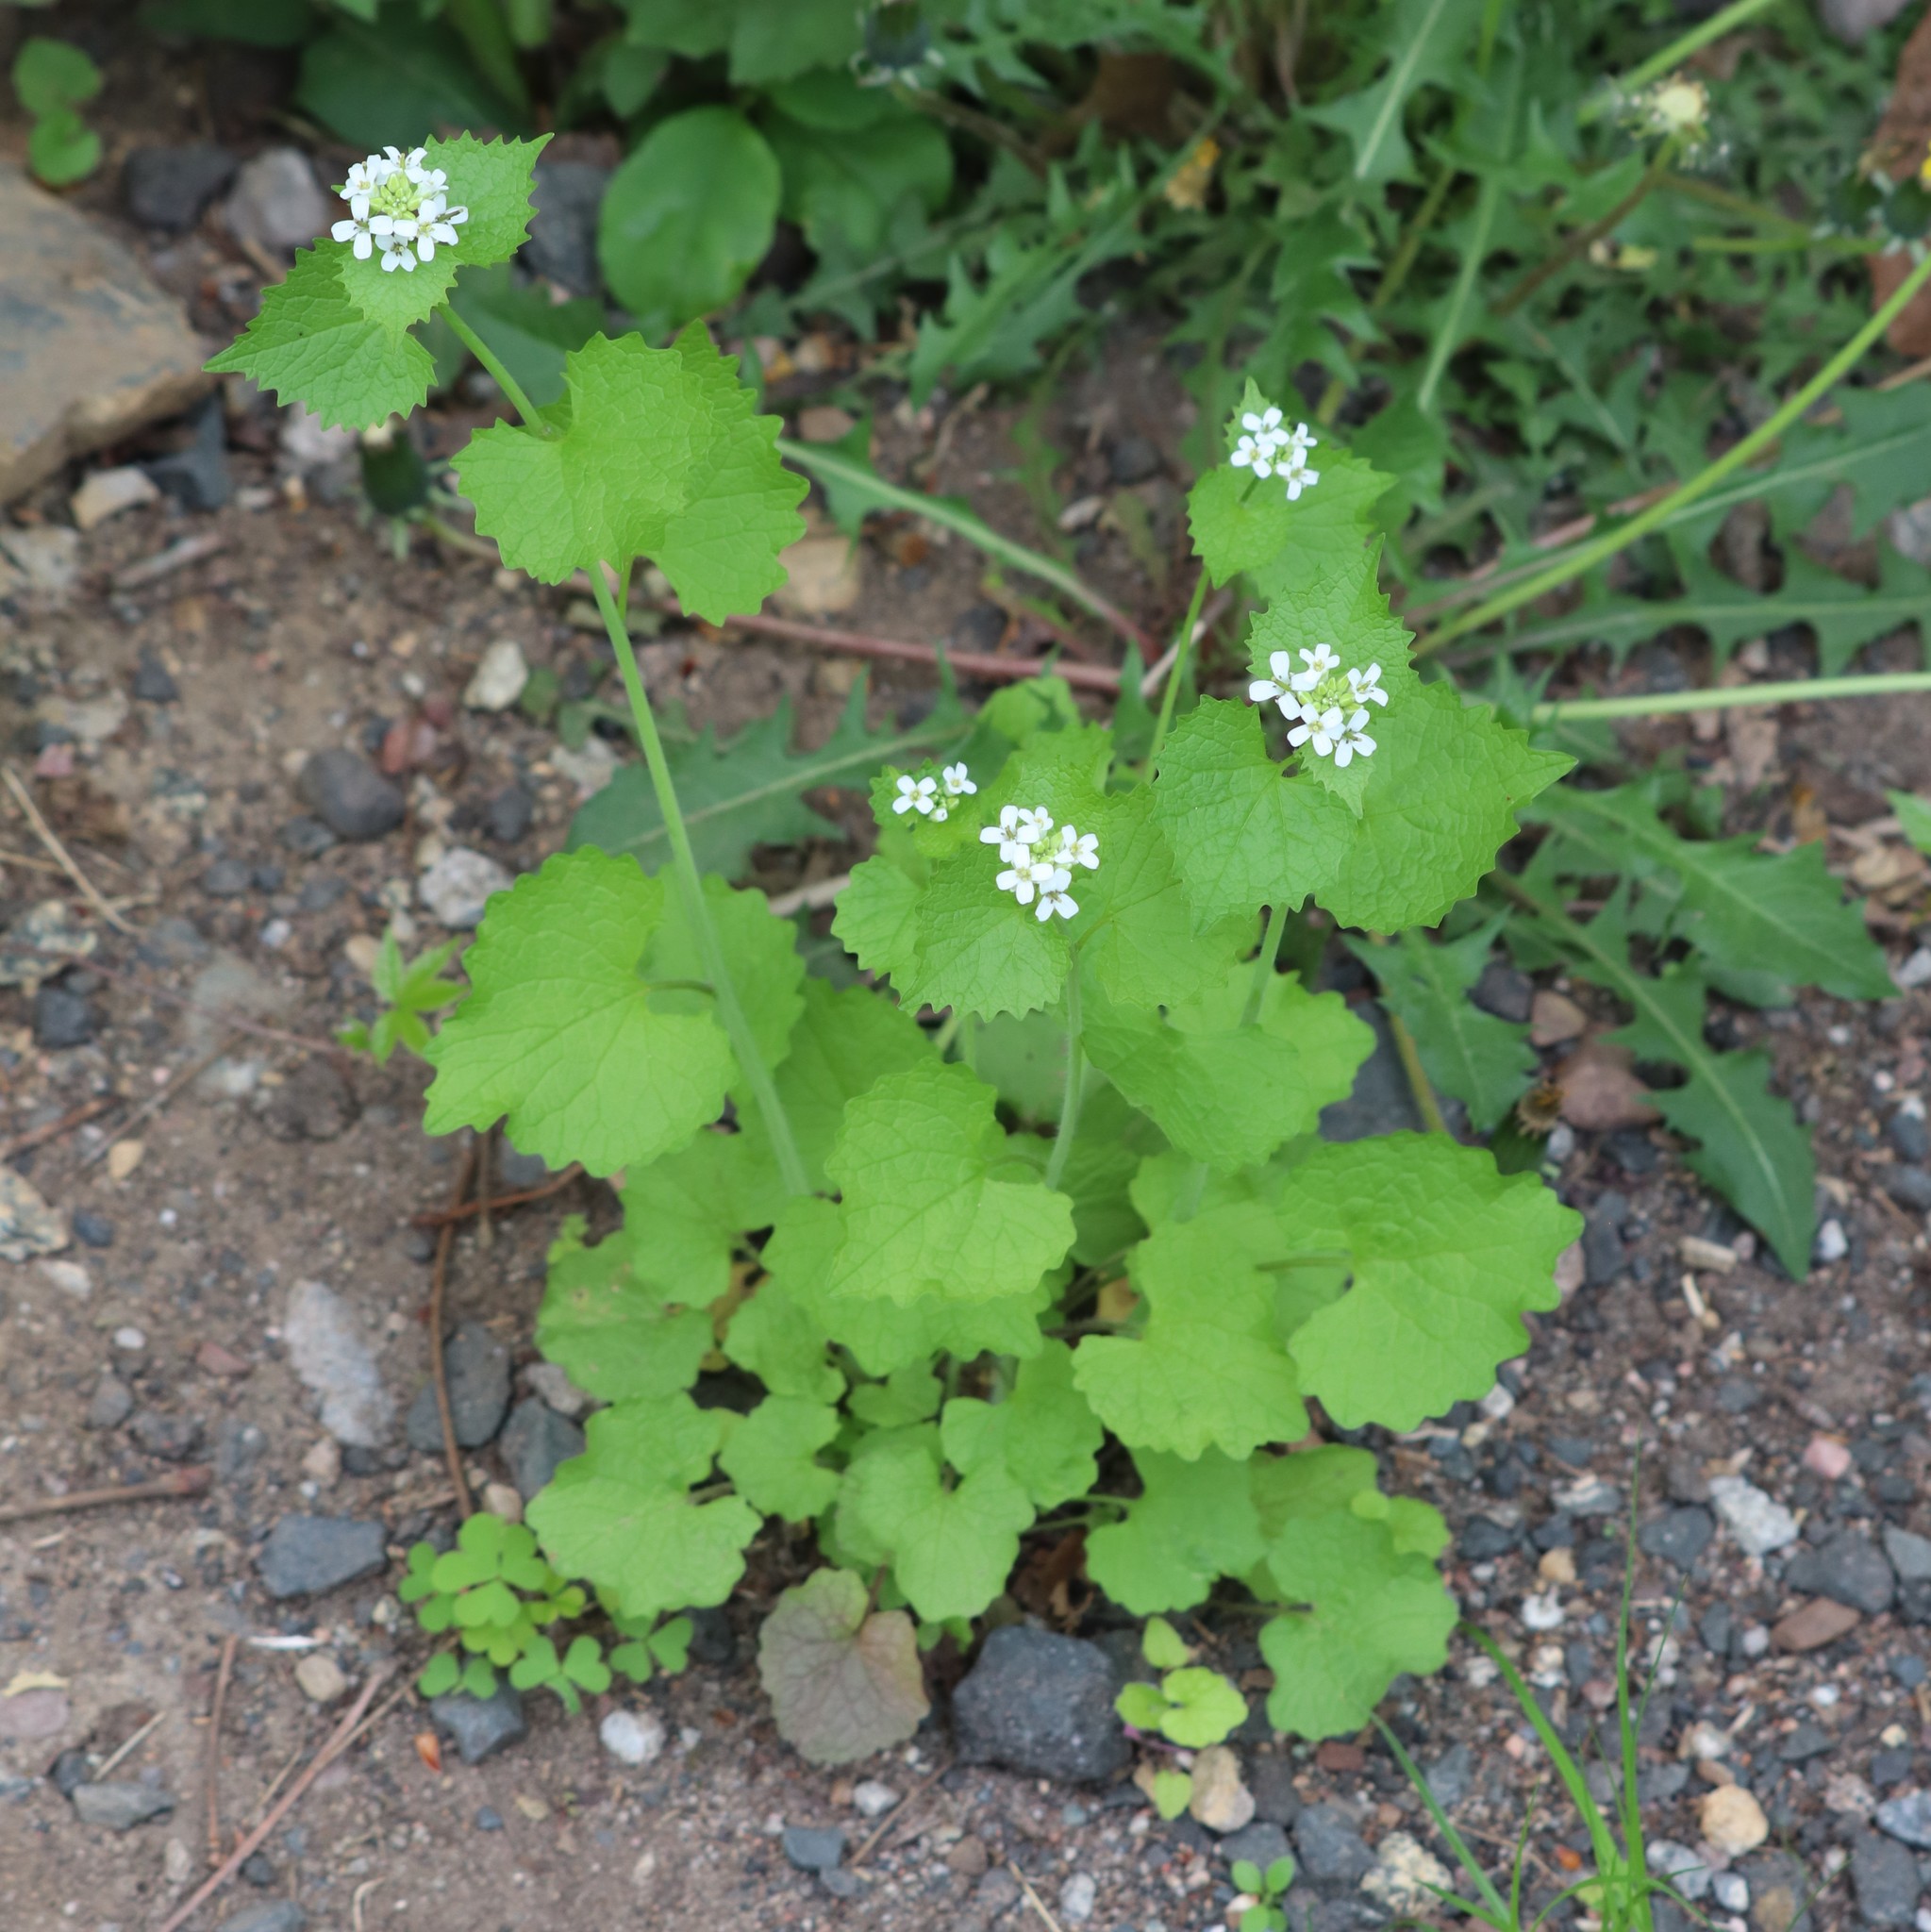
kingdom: Plantae
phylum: Tracheophyta
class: Magnoliopsida
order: Brassicales
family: Brassicaceae
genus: Alliaria
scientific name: Alliaria petiolata
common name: Garlic mustard
